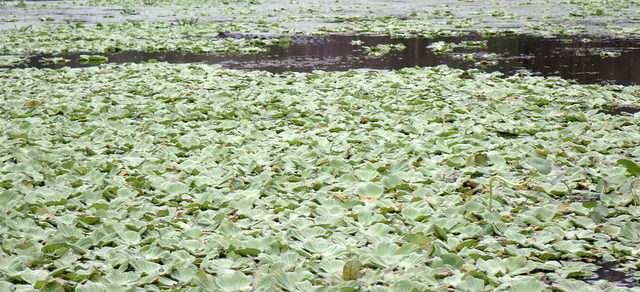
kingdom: Plantae
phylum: Tracheophyta
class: Liliopsida
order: Alismatales
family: Araceae
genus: Pistia
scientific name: Pistia stratiotes
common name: Water lettuce
